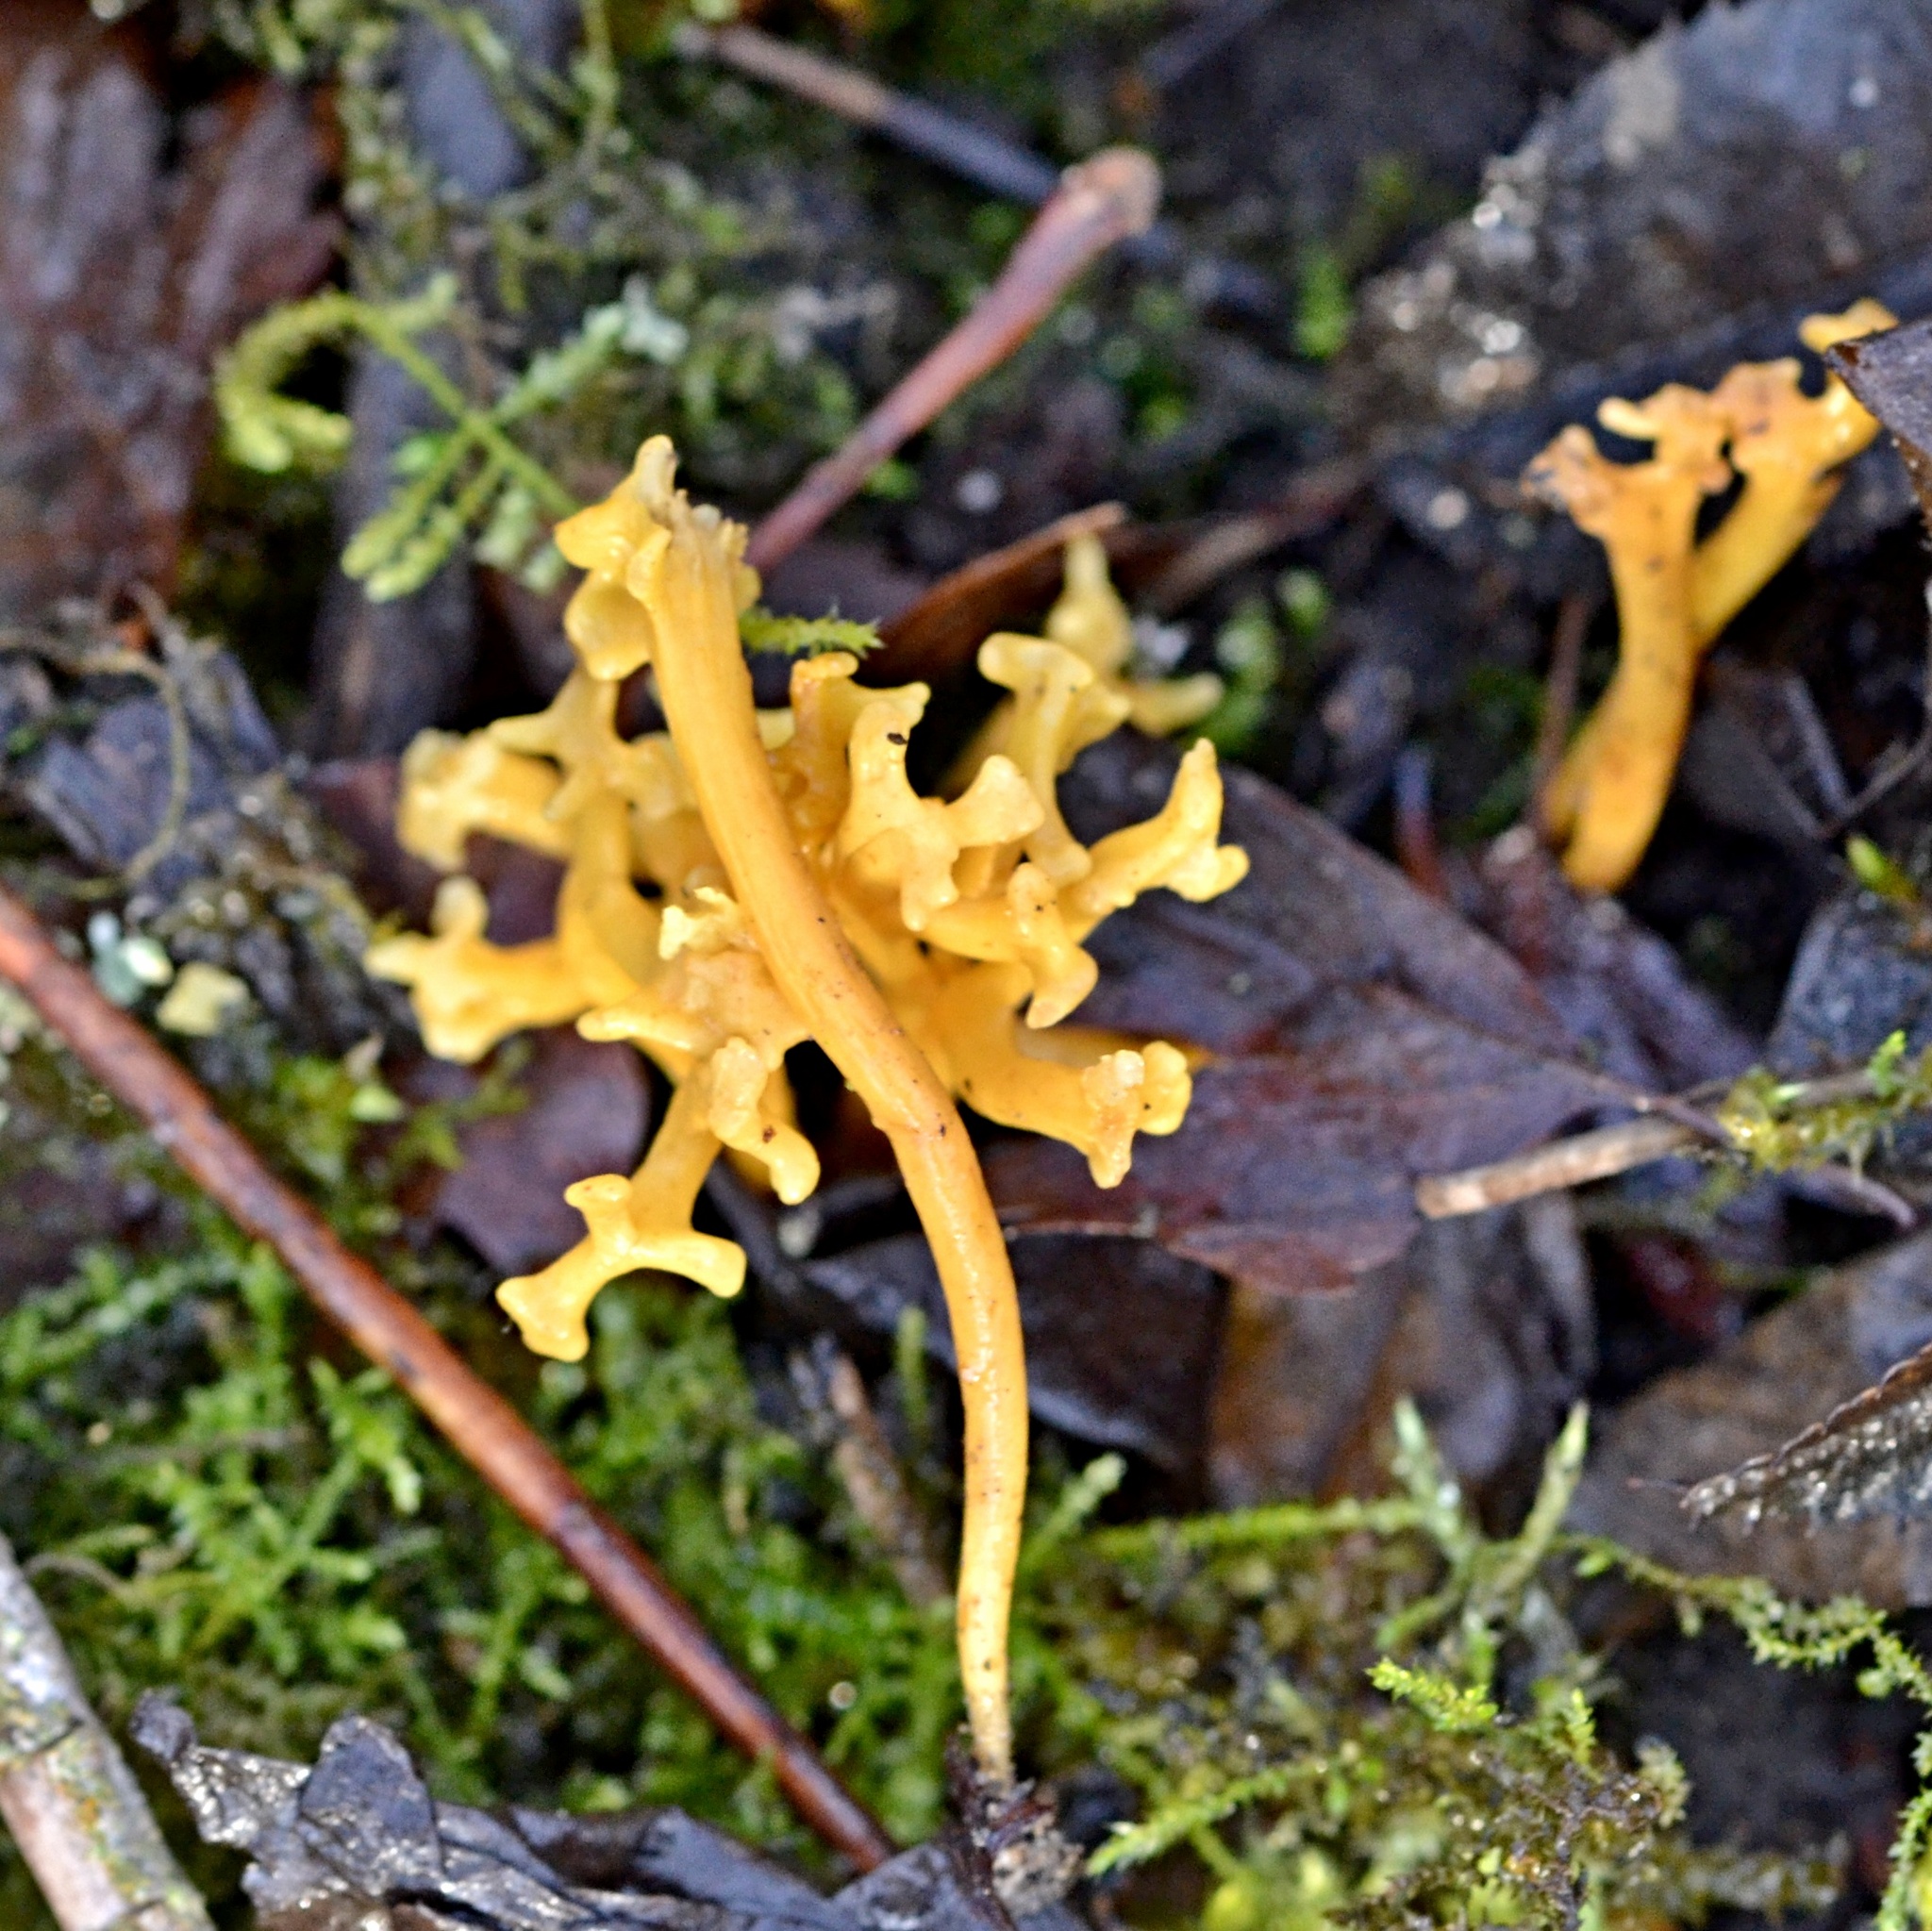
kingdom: Fungi
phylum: Basidiomycota
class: Agaricomycetes
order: Agaricales
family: Clavariaceae
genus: Clavulinopsis
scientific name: Clavulinopsis corniculata
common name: Meadow coral
